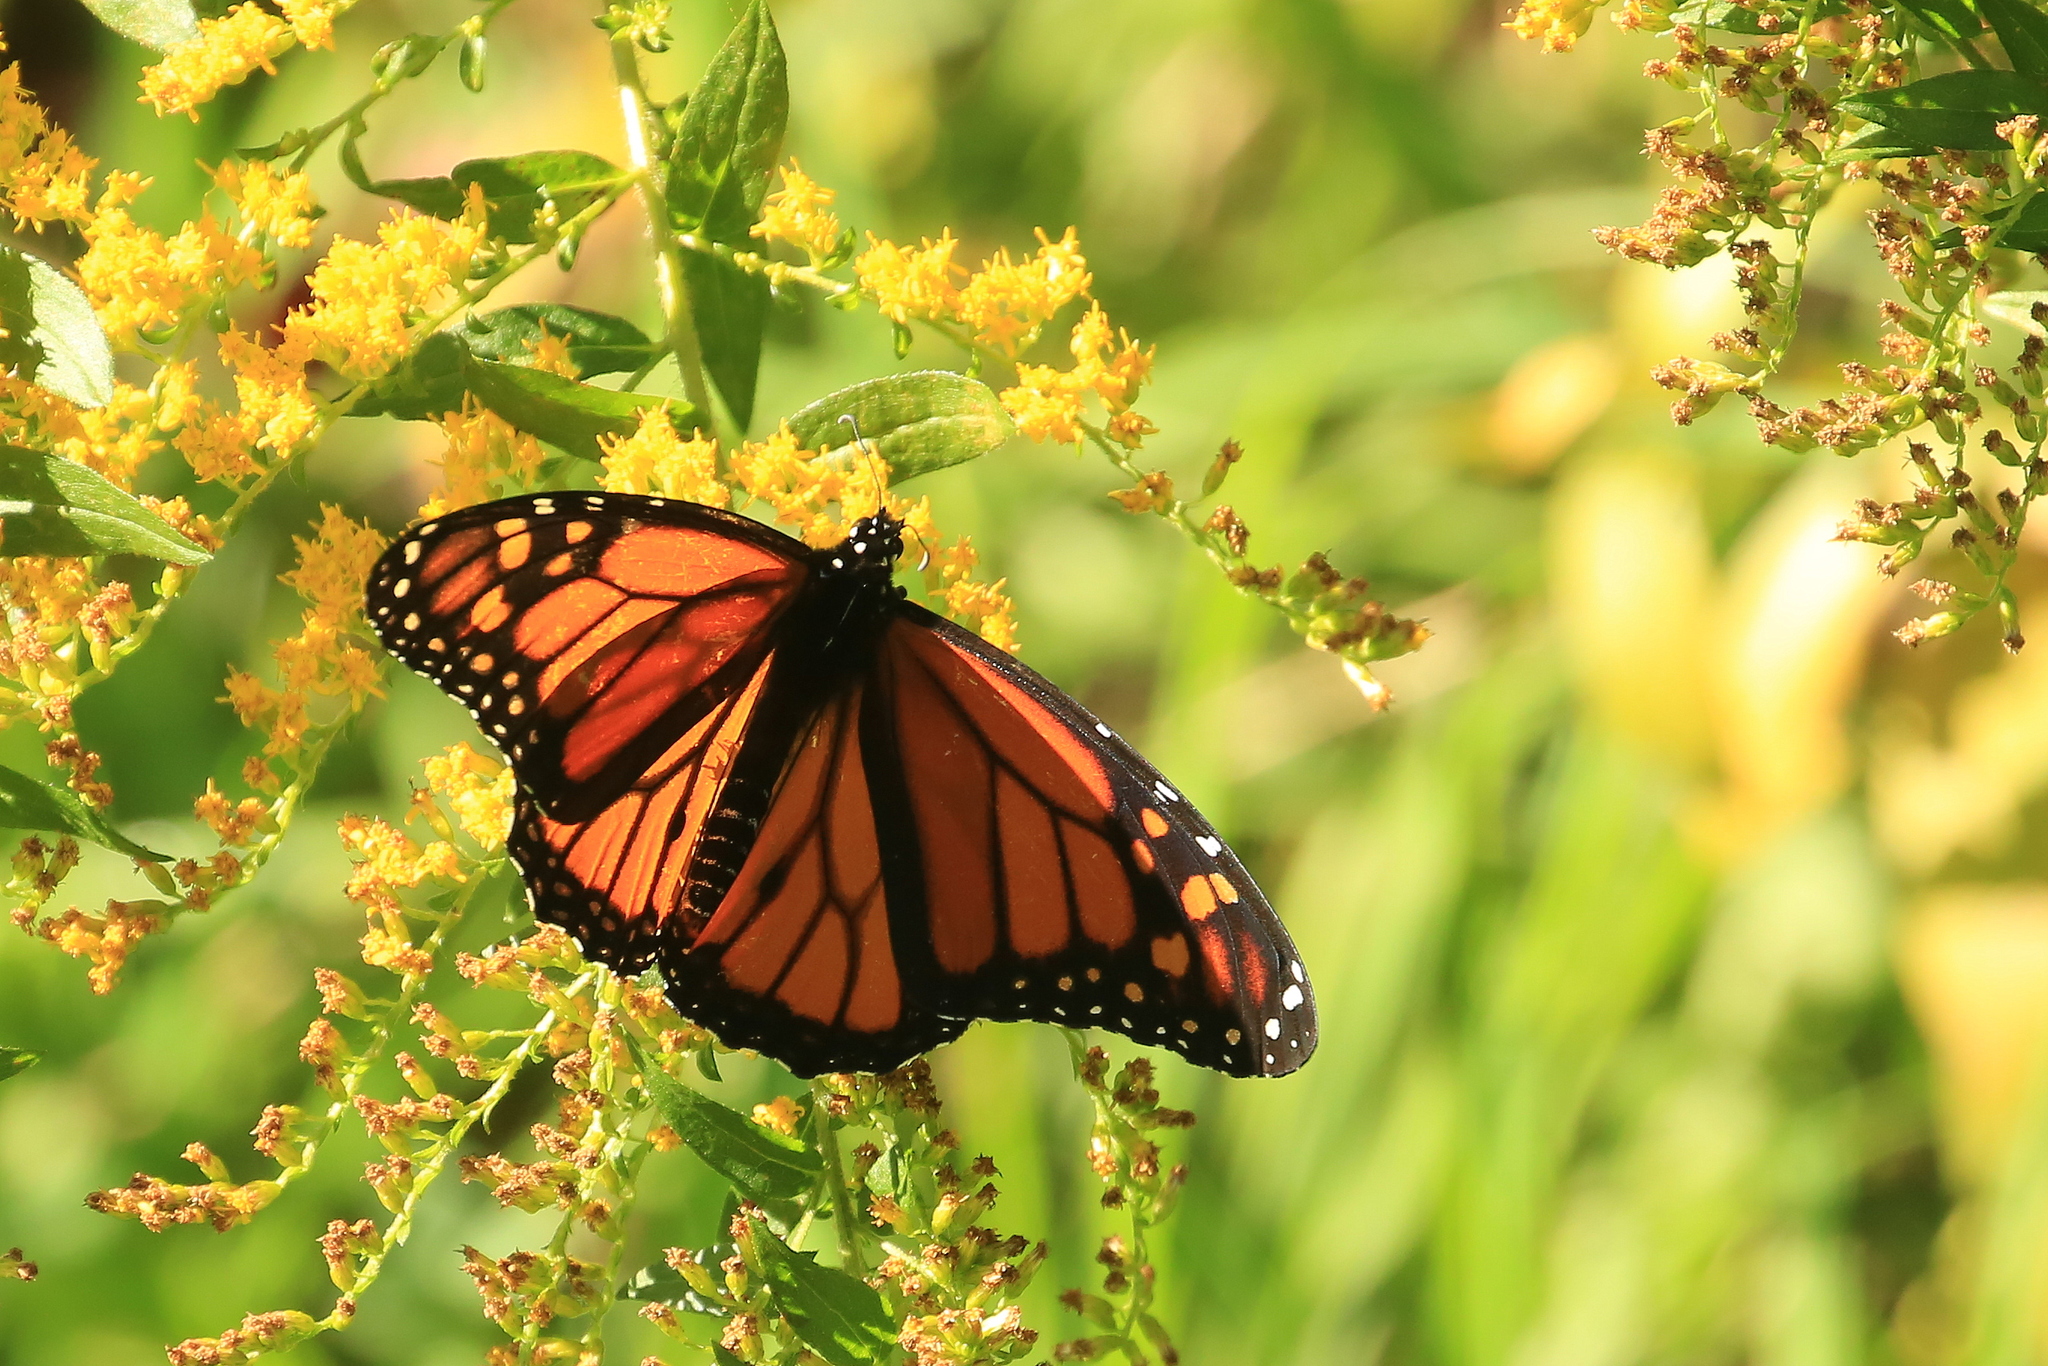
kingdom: Animalia
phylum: Arthropoda
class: Insecta
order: Lepidoptera
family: Nymphalidae
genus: Danaus
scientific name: Danaus plexippus
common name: Monarch
